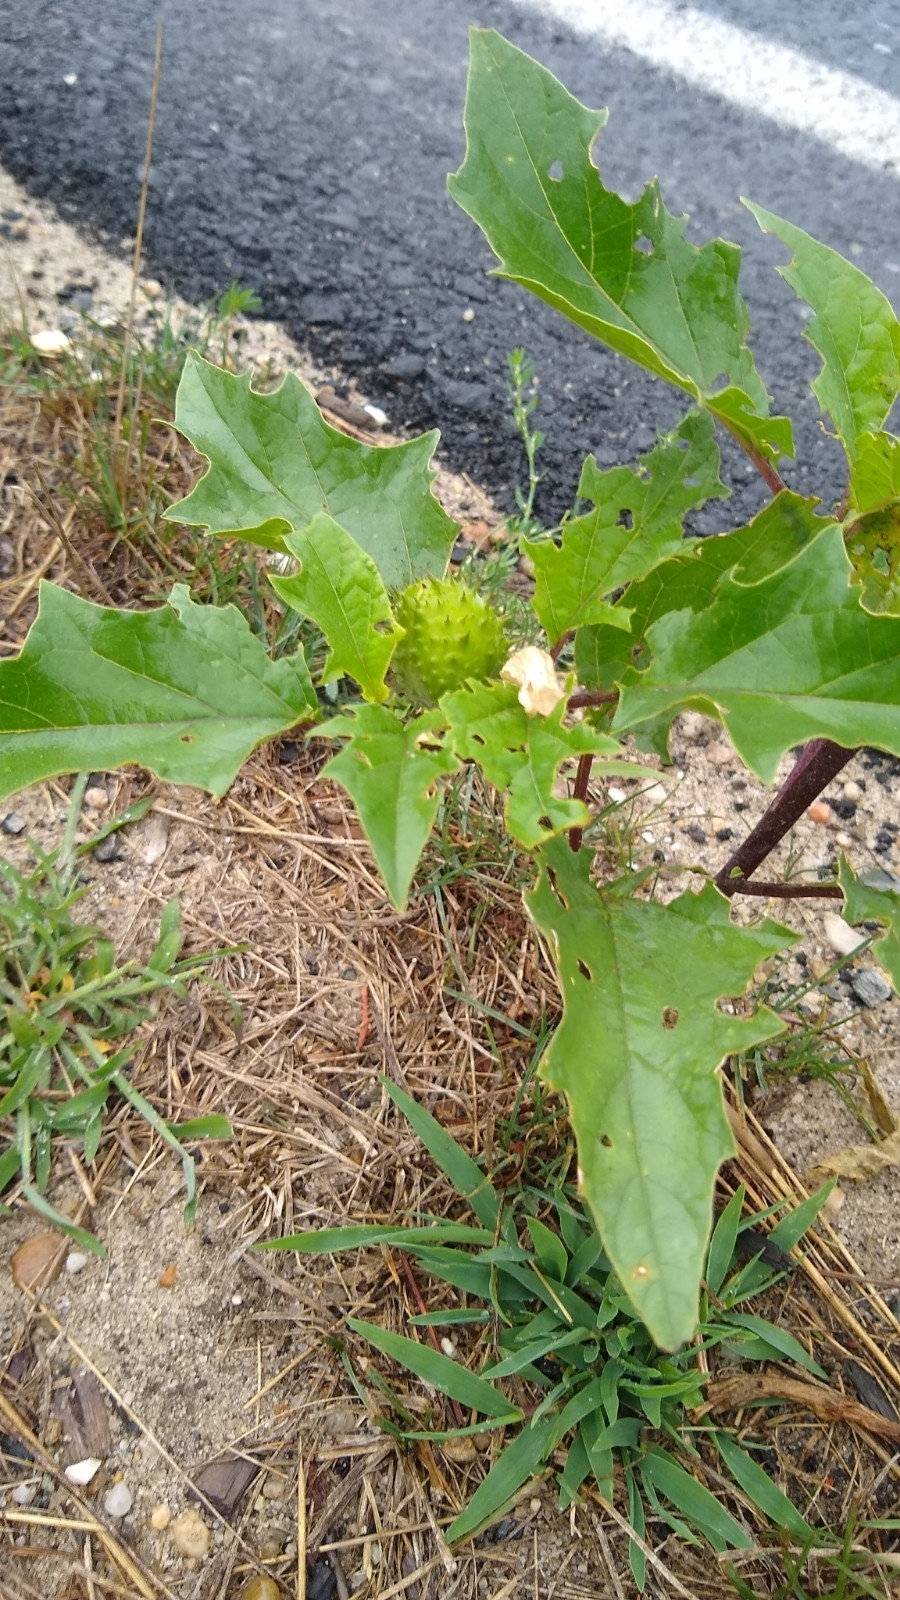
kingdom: Plantae
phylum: Tracheophyta
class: Magnoliopsida
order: Solanales
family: Solanaceae
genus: Datura
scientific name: Datura stramonium
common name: Thorn-apple
